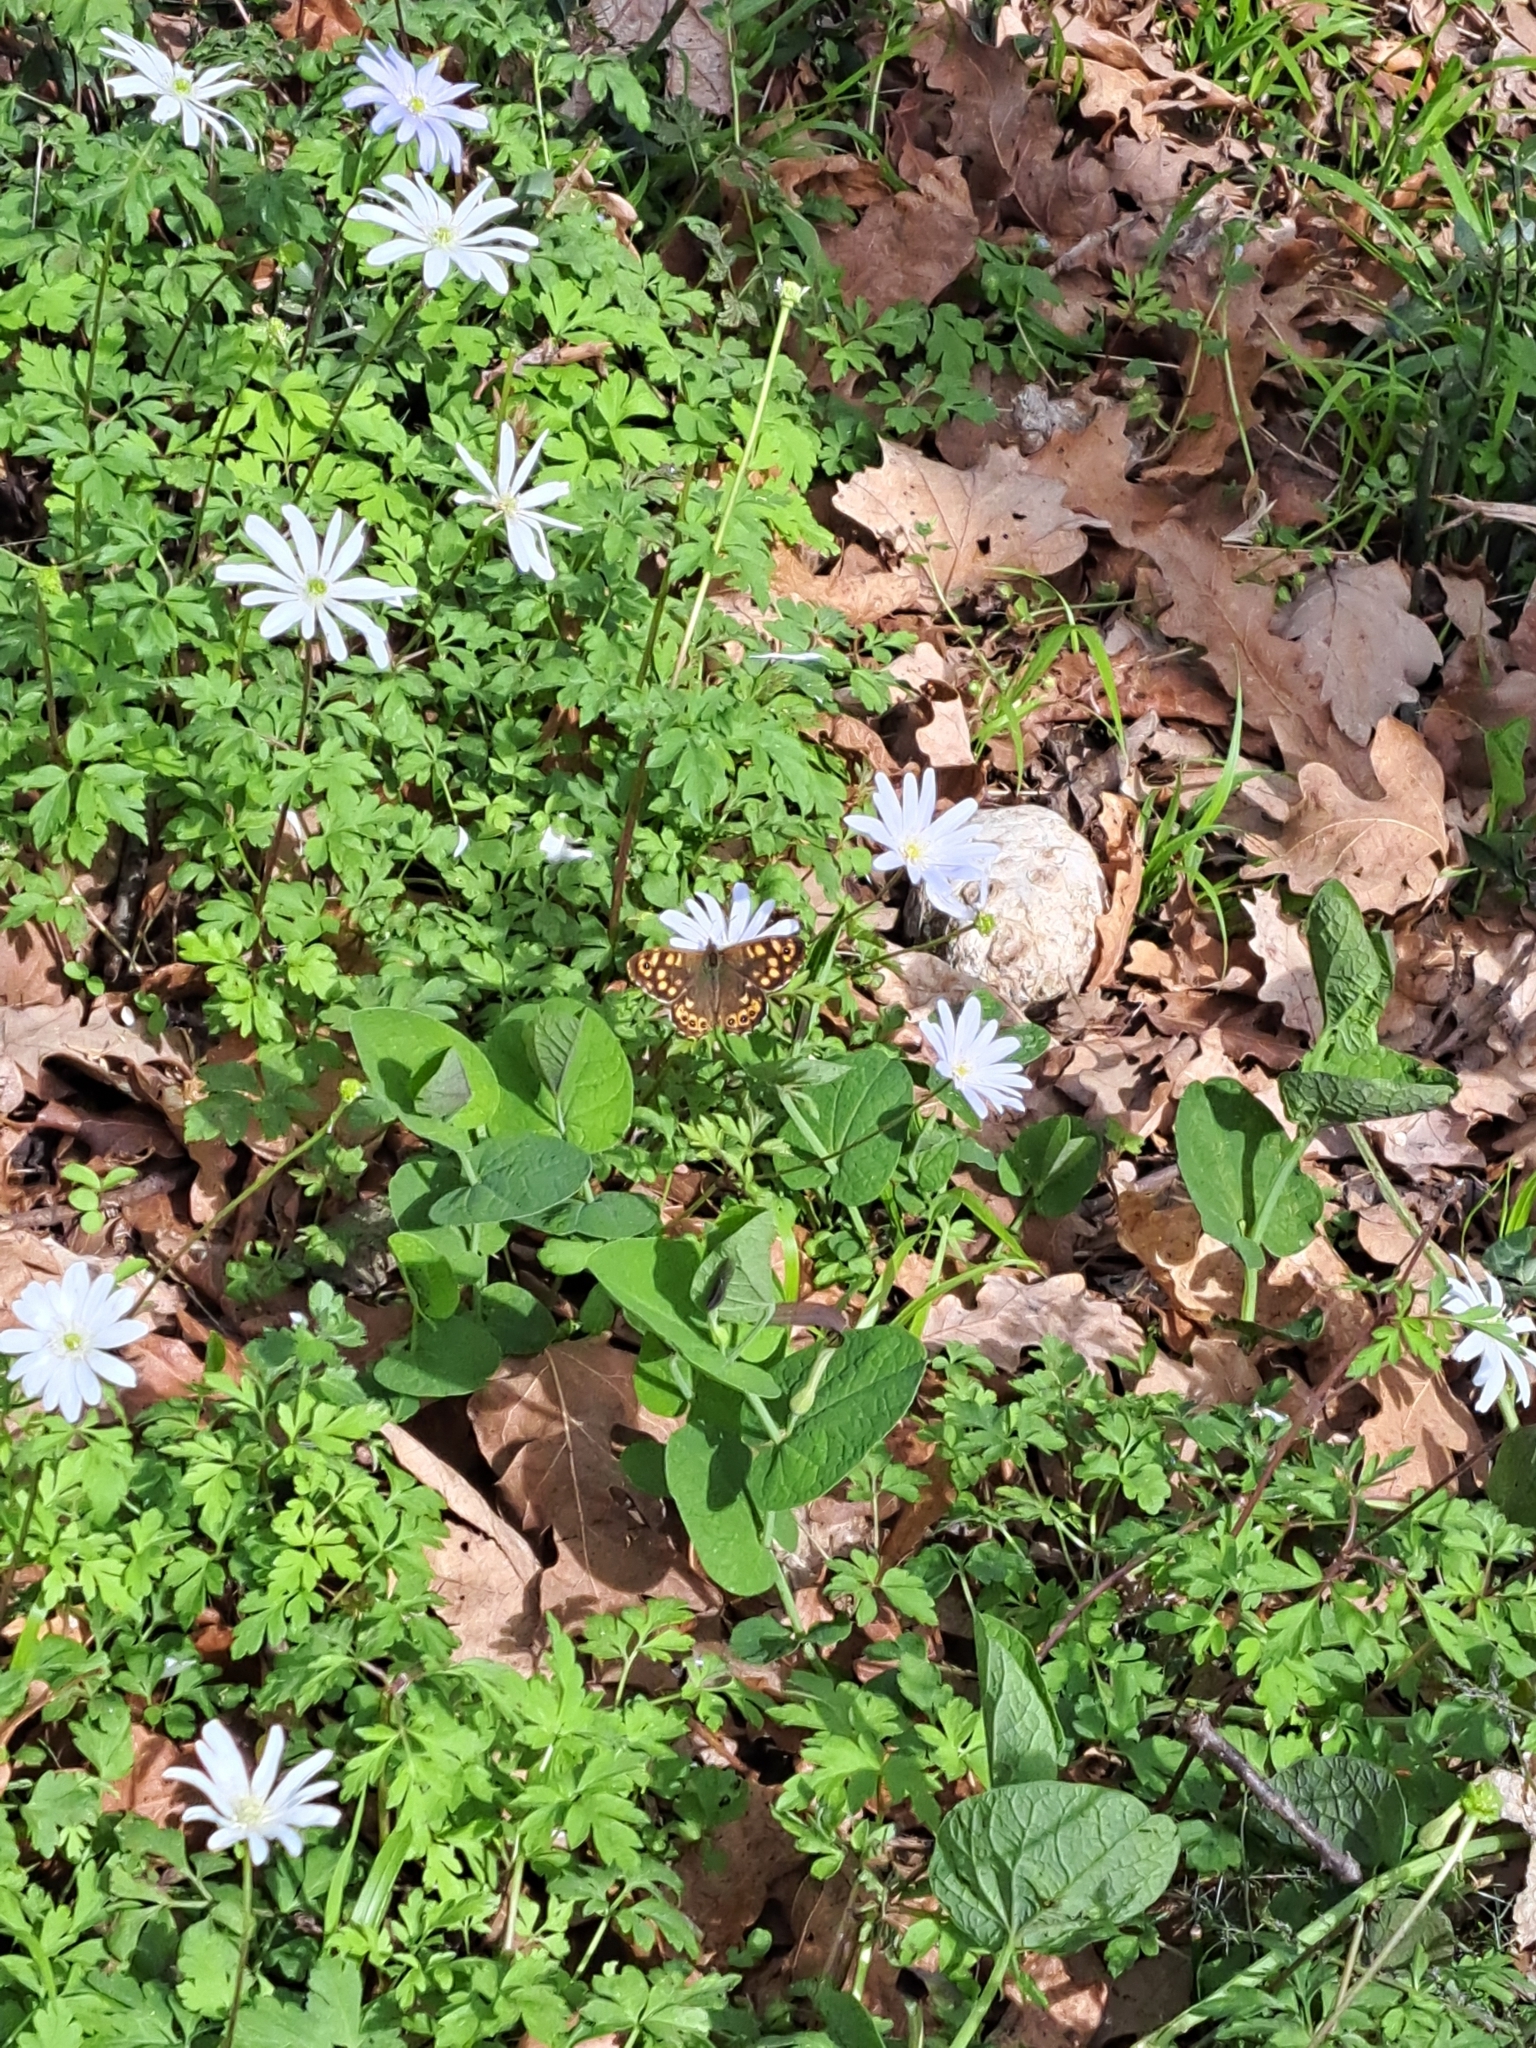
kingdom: Animalia
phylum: Arthropoda
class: Insecta
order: Lepidoptera
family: Nymphalidae
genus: Pararge
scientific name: Pararge aegeria
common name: Speckled wood
